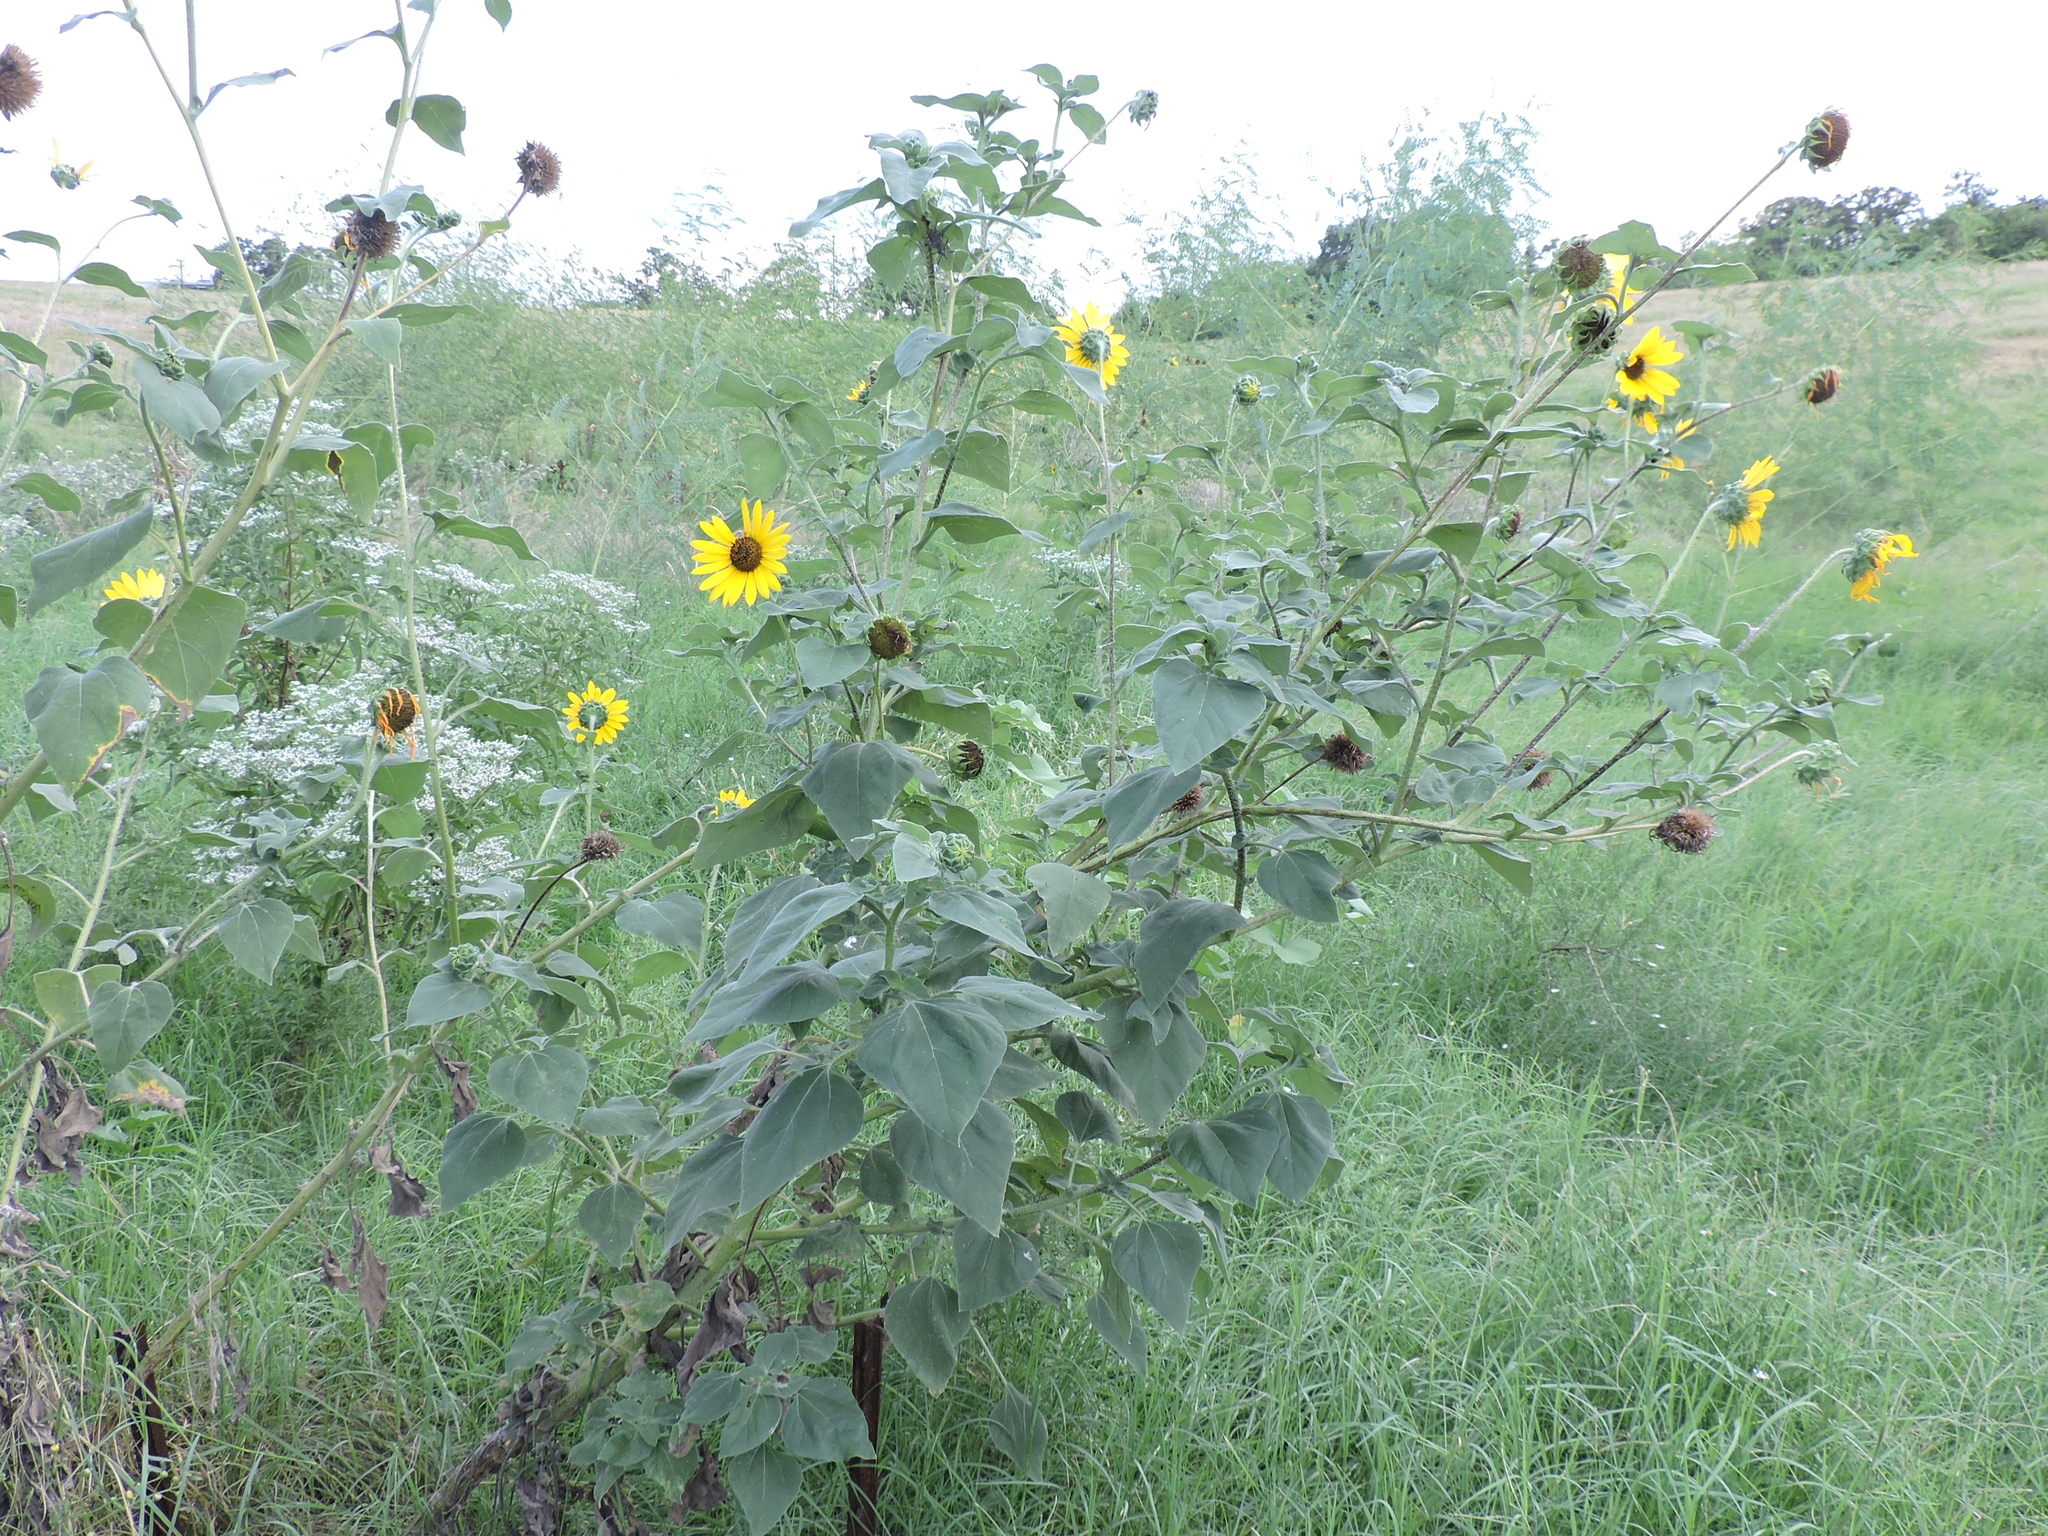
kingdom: Plantae
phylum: Tracheophyta
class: Magnoliopsida
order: Asterales
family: Asteraceae
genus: Helianthus
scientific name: Helianthus annuus
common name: Sunflower
